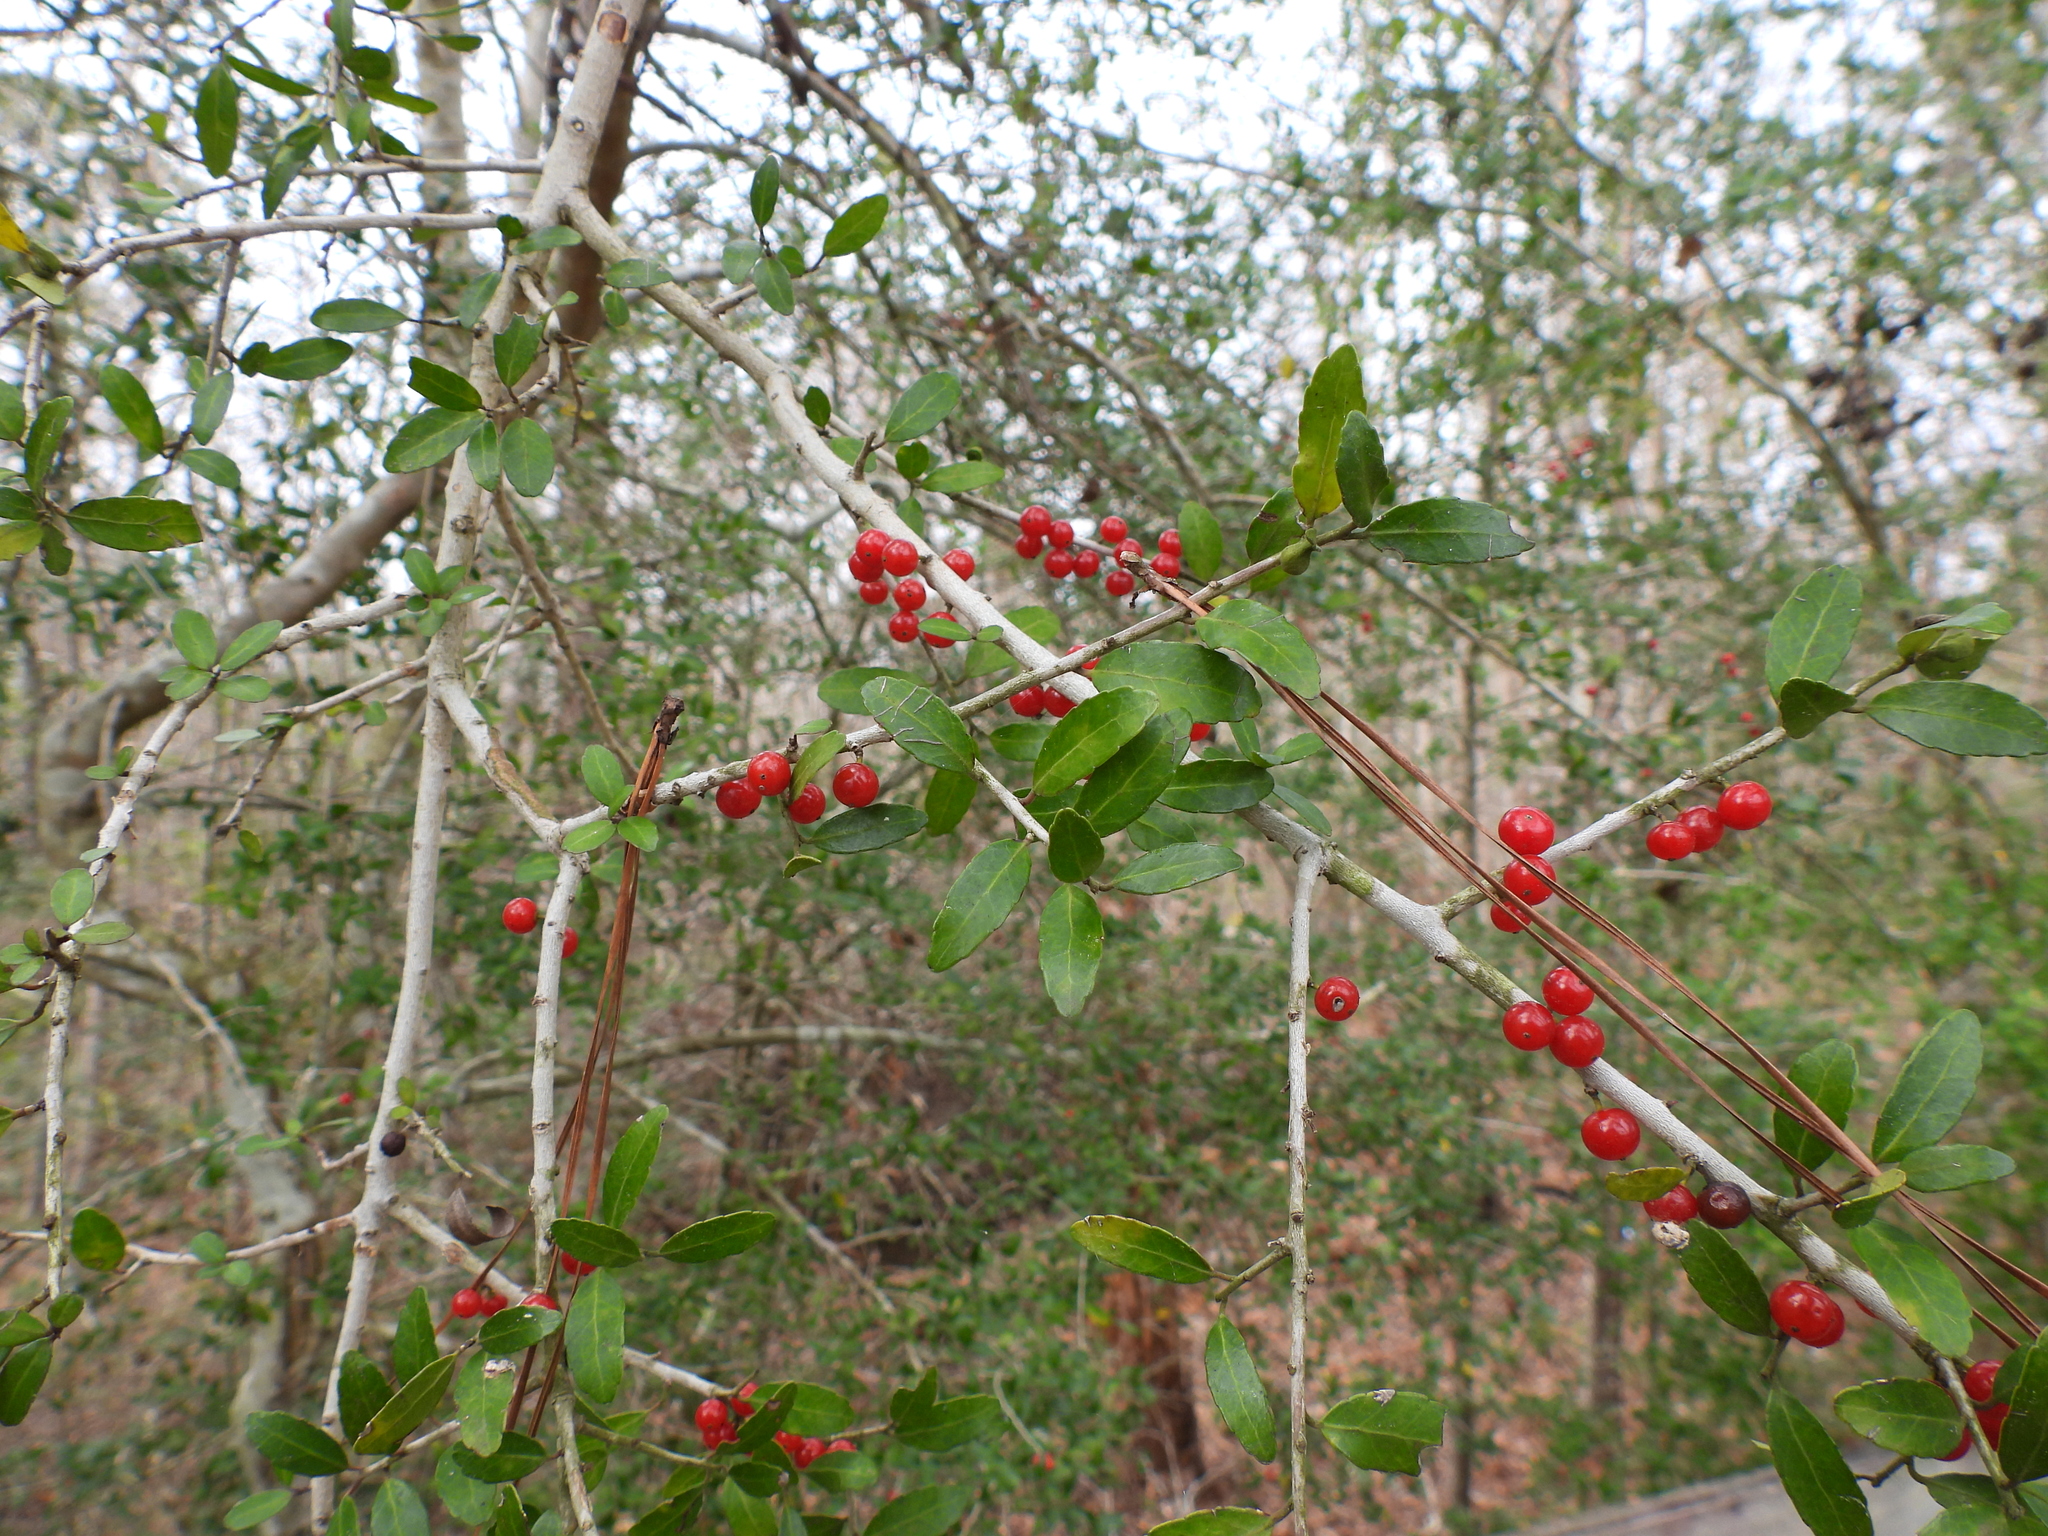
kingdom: Plantae
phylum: Tracheophyta
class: Magnoliopsida
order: Aquifoliales
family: Aquifoliaceae
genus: Ilex
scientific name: Ilex vomitoria
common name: Yaupon holly
